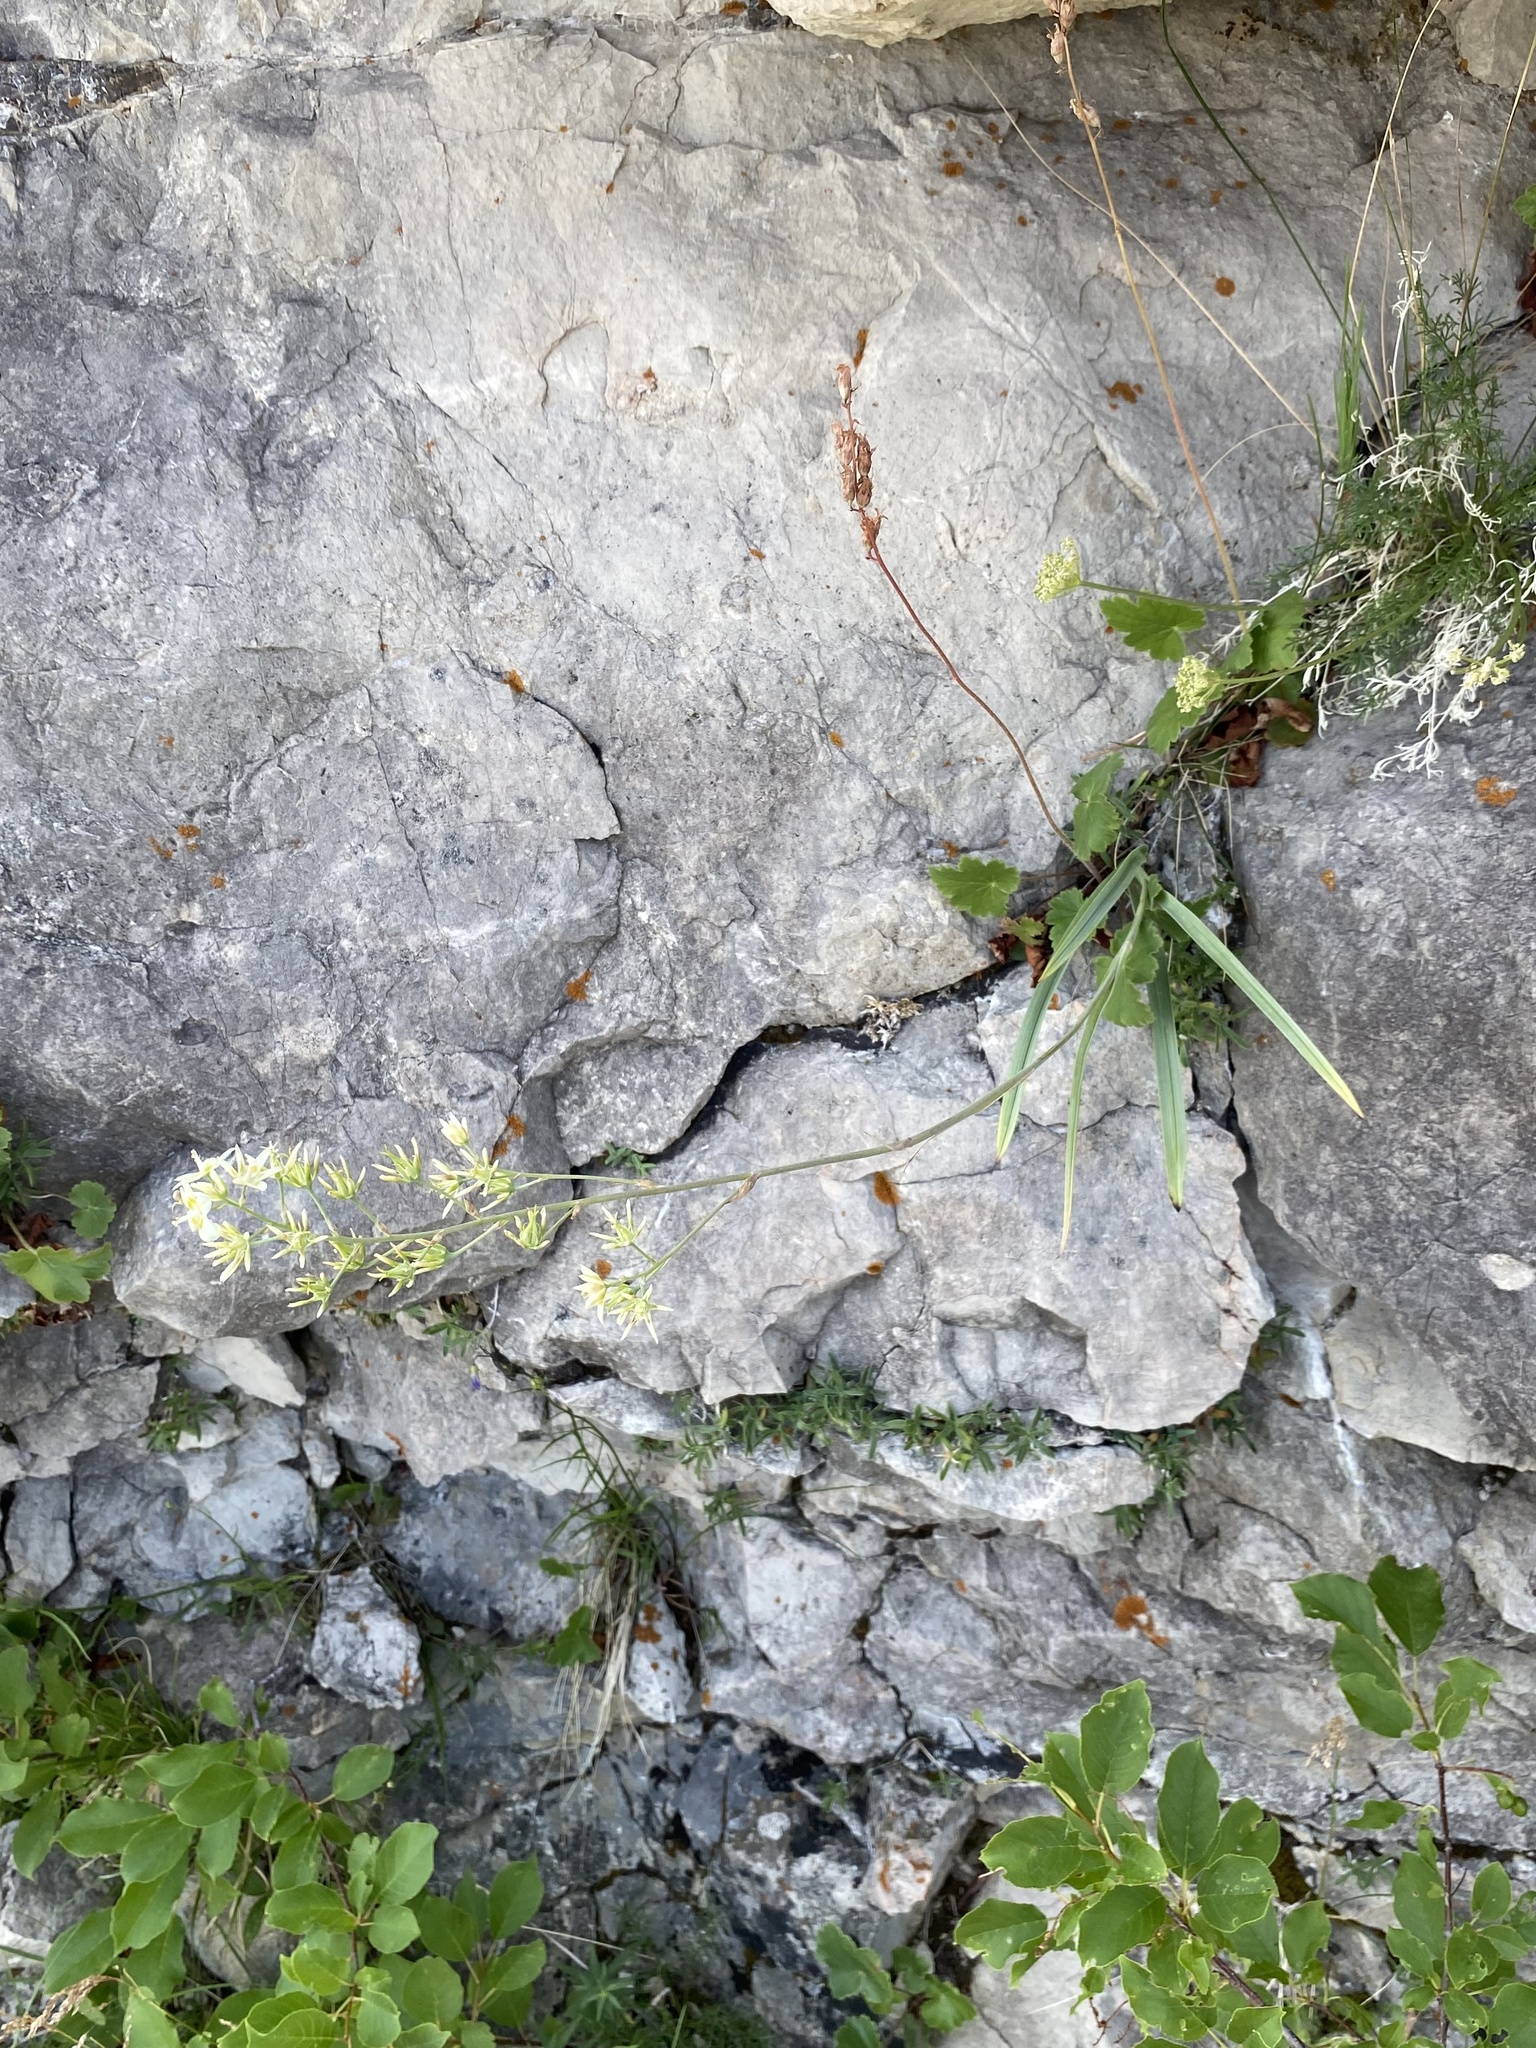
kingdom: Plantae
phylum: Tracheophyta
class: Liliopsida
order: Liliales
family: Melanthiaceae
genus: Anticlea
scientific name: Anticlea elegans
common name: Mountain death camas
